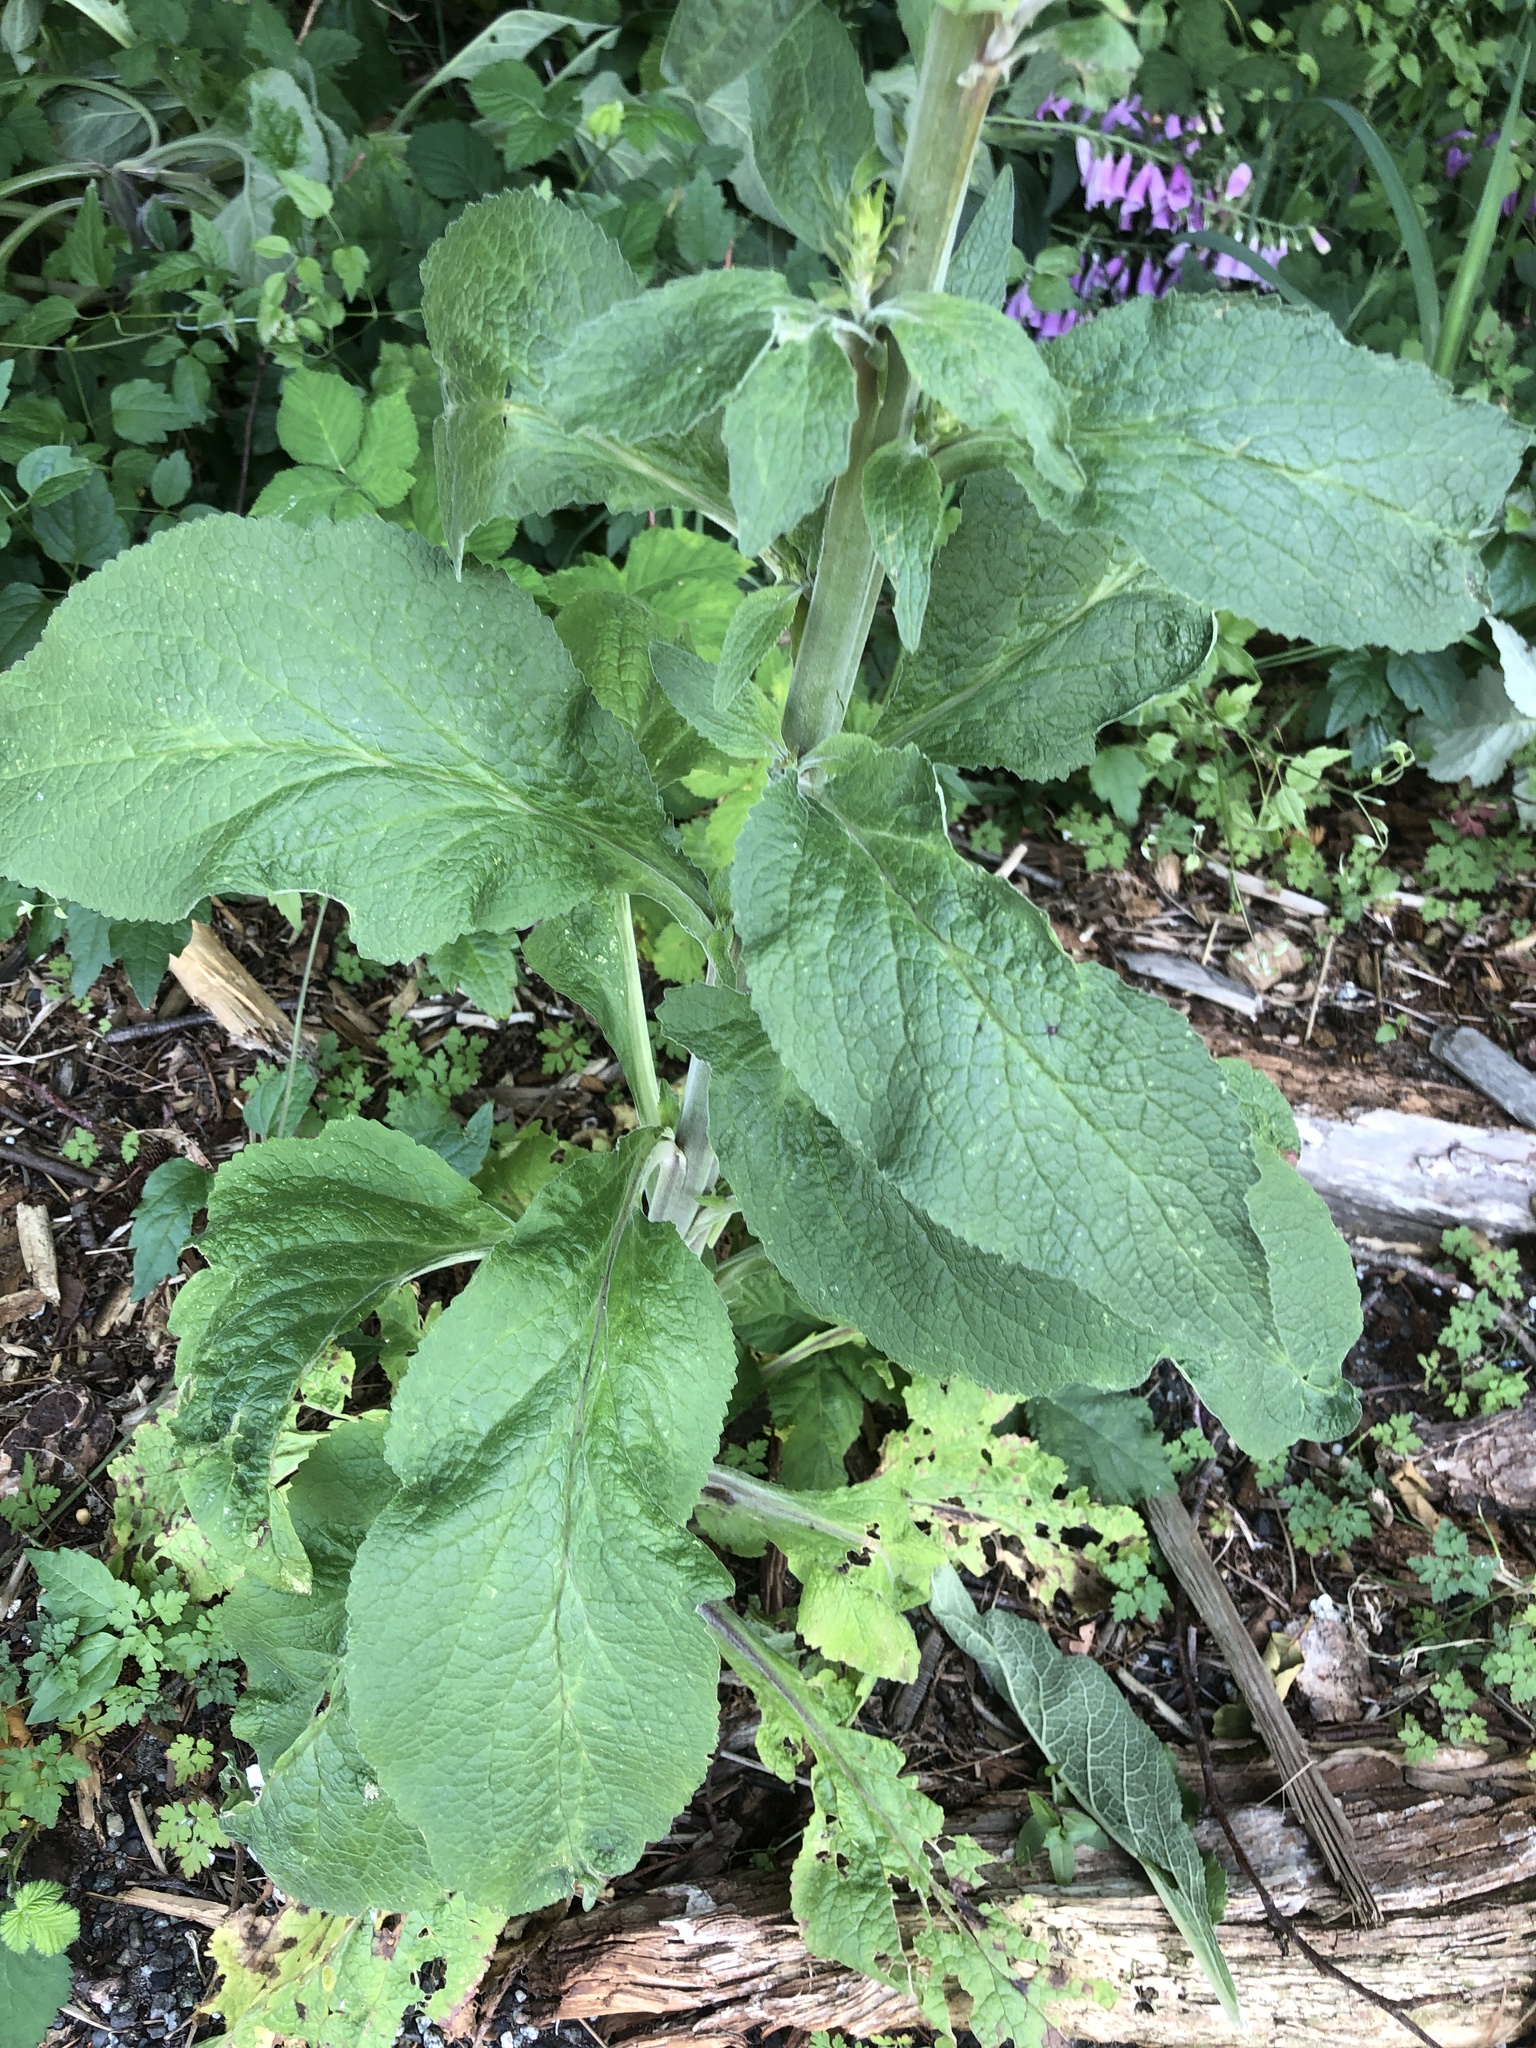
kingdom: Plantae
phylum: Tracheophyta
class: Magnoliopsida
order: Lamiales
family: Plantaginaceae
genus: Digitalis
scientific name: Digitalis purpurea
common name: Foxglove
